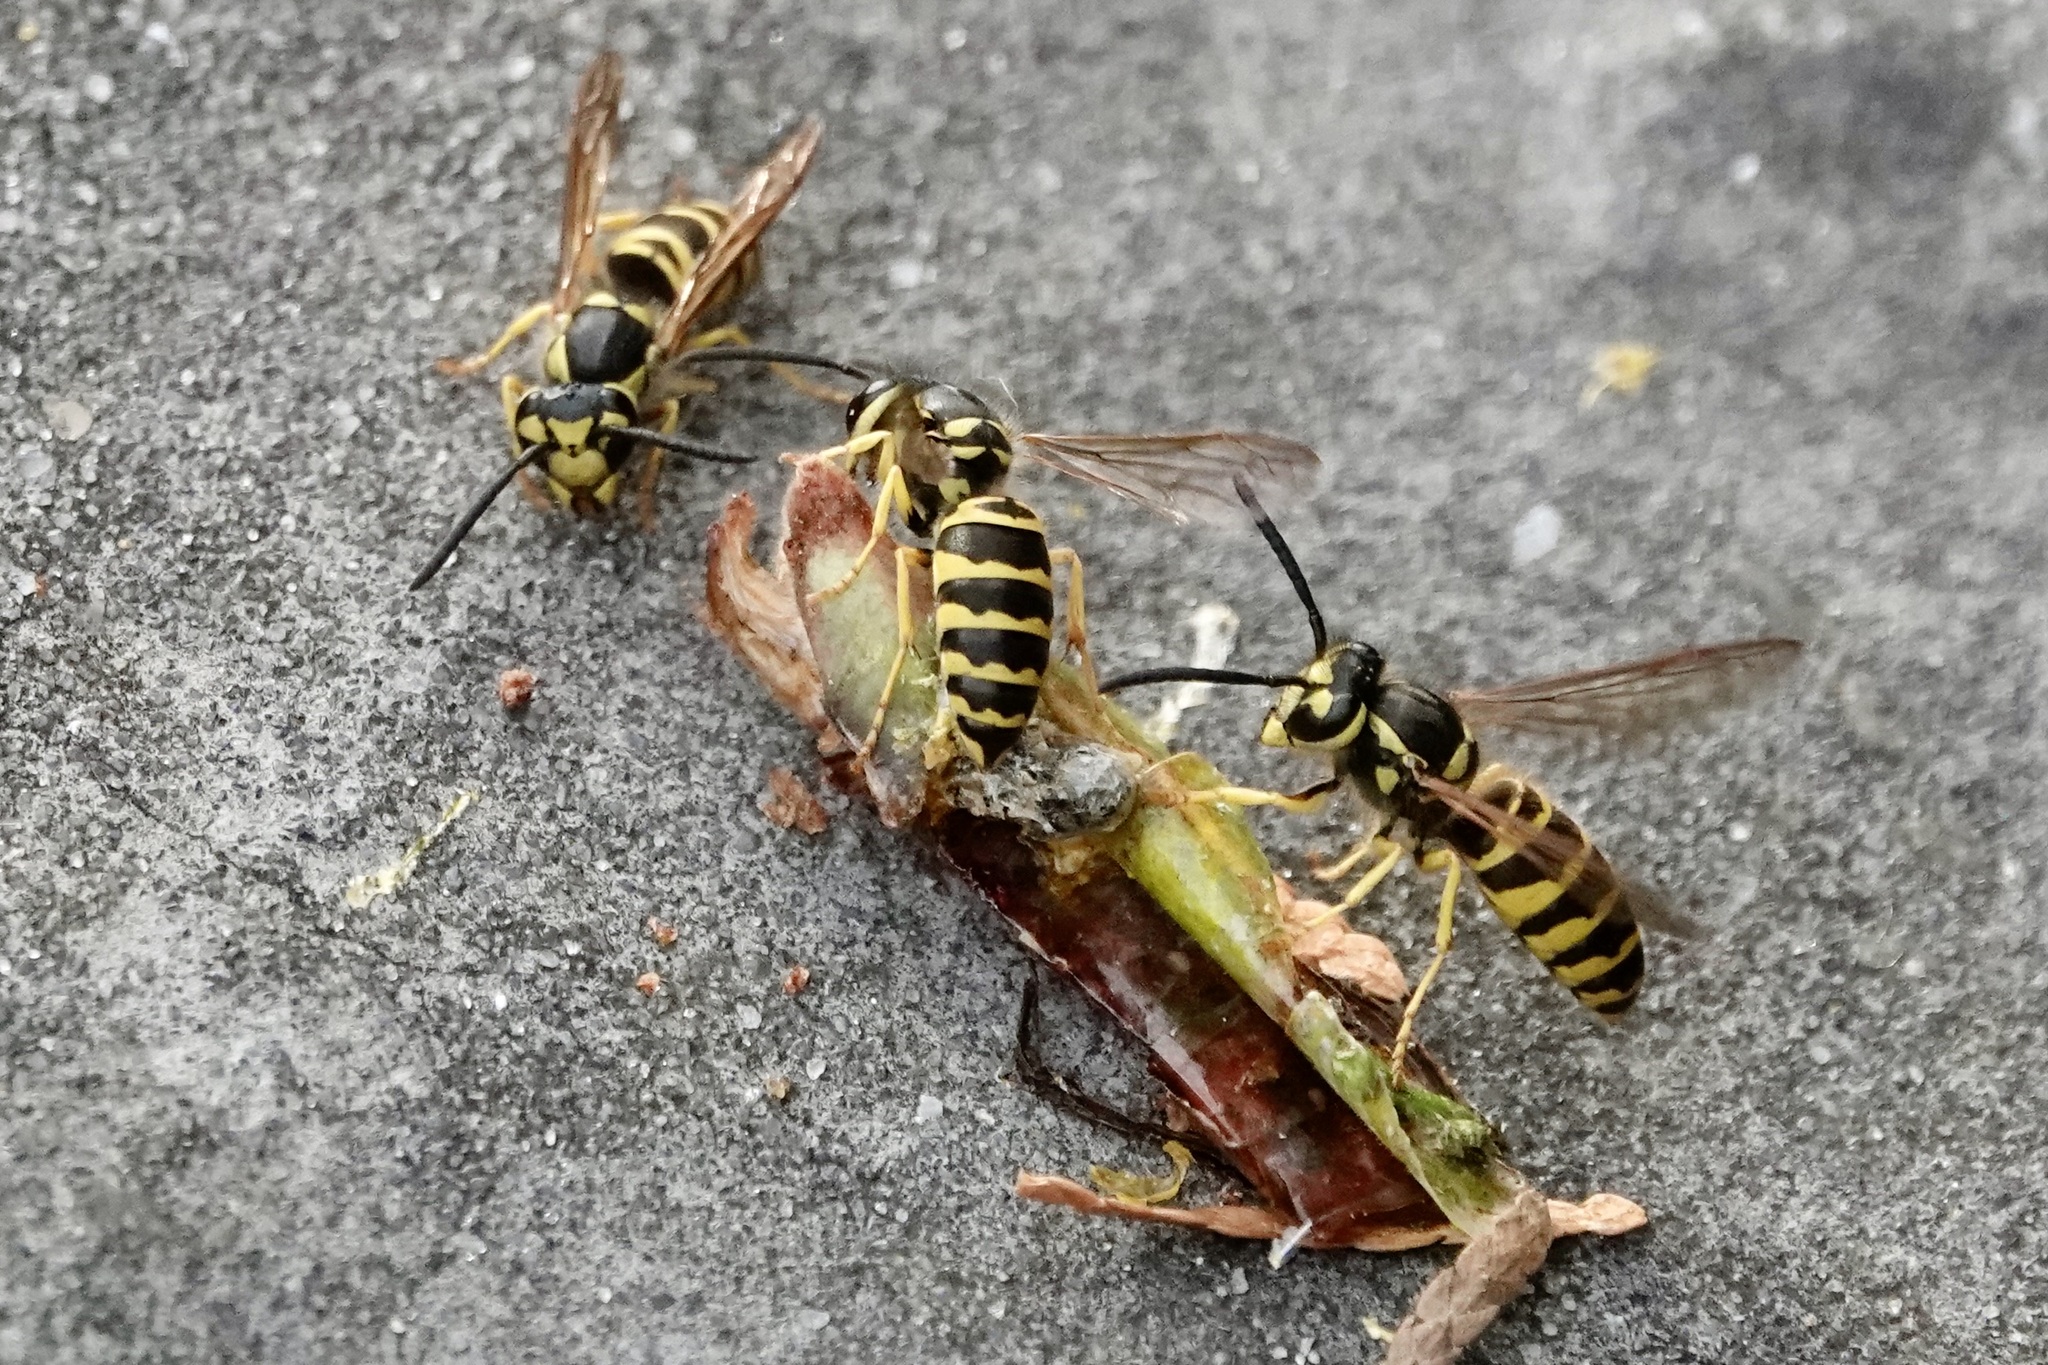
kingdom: Animalia
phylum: Arthropoda
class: Insecta
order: Hymenoptera
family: Vespidae
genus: Vespula
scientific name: Vespula maculifrons
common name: Eastern yellowjacket
